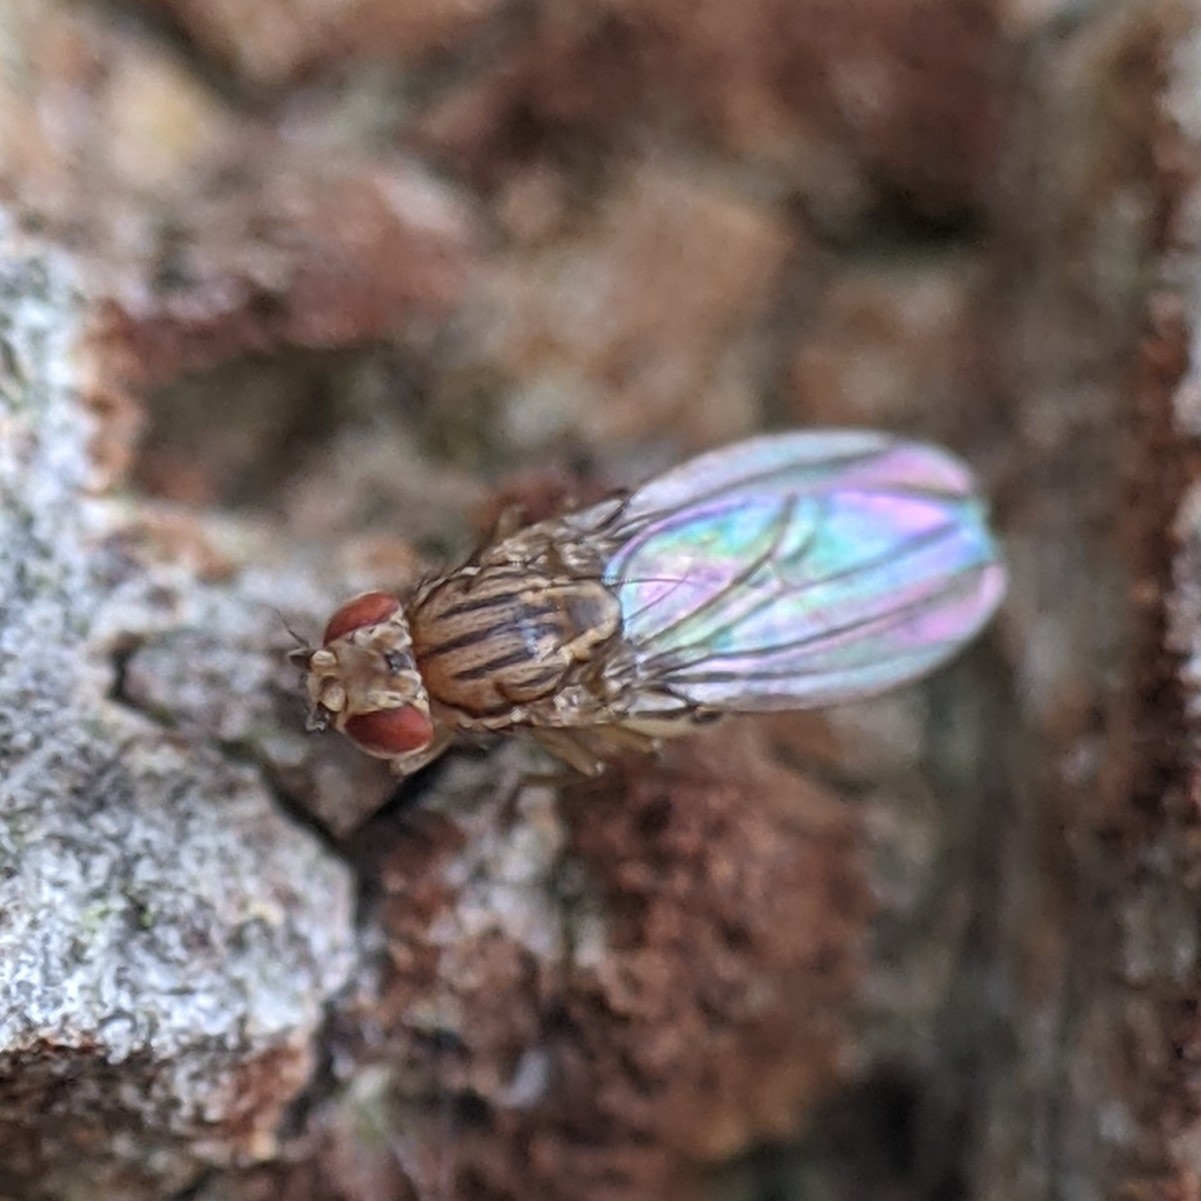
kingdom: Animalia
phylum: Arthropoda
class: Insecta
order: Diptera
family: Drosophilidae
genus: Drosophila
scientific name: Drosophila busckii
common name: Pomace fly
